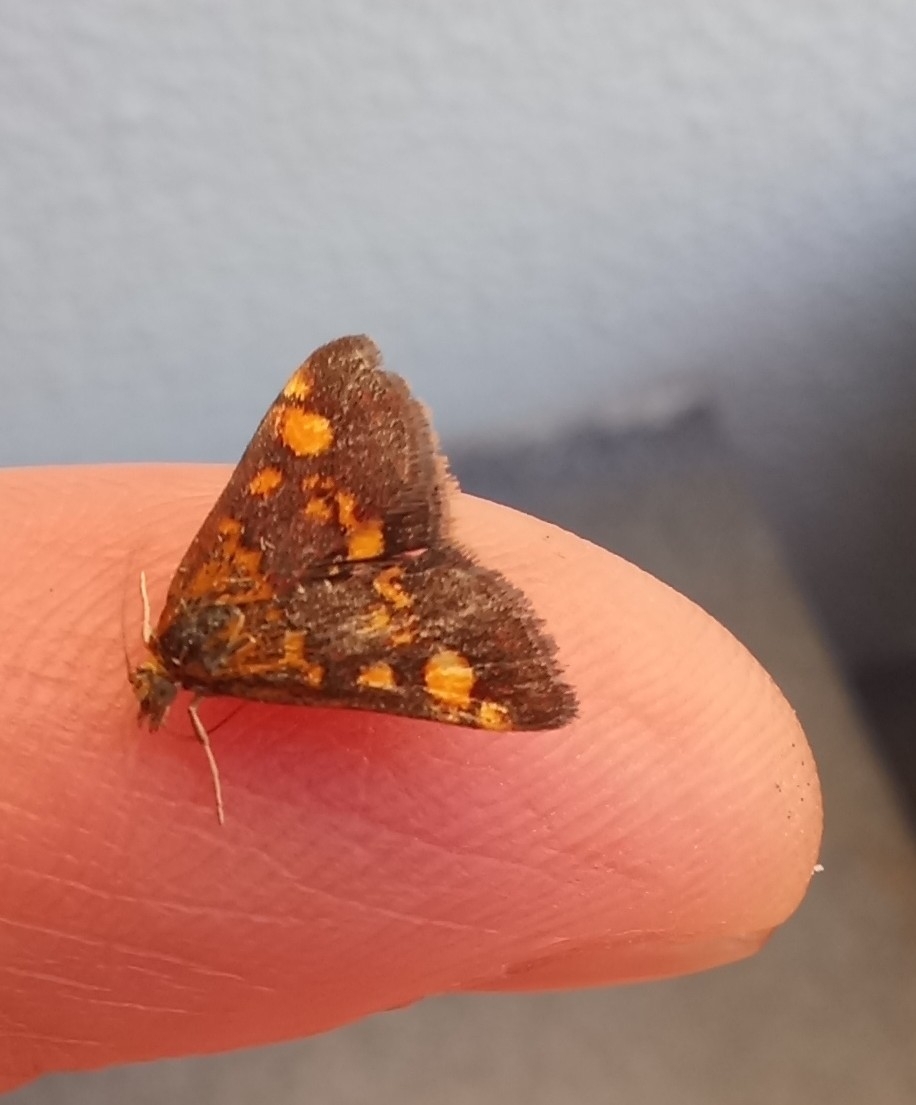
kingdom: Animalia
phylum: Arthropoda
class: Insecta
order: Lepidoptera
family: Crambidae
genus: Pyrausta
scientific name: Pyrausta aurata
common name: Small purple & gold
